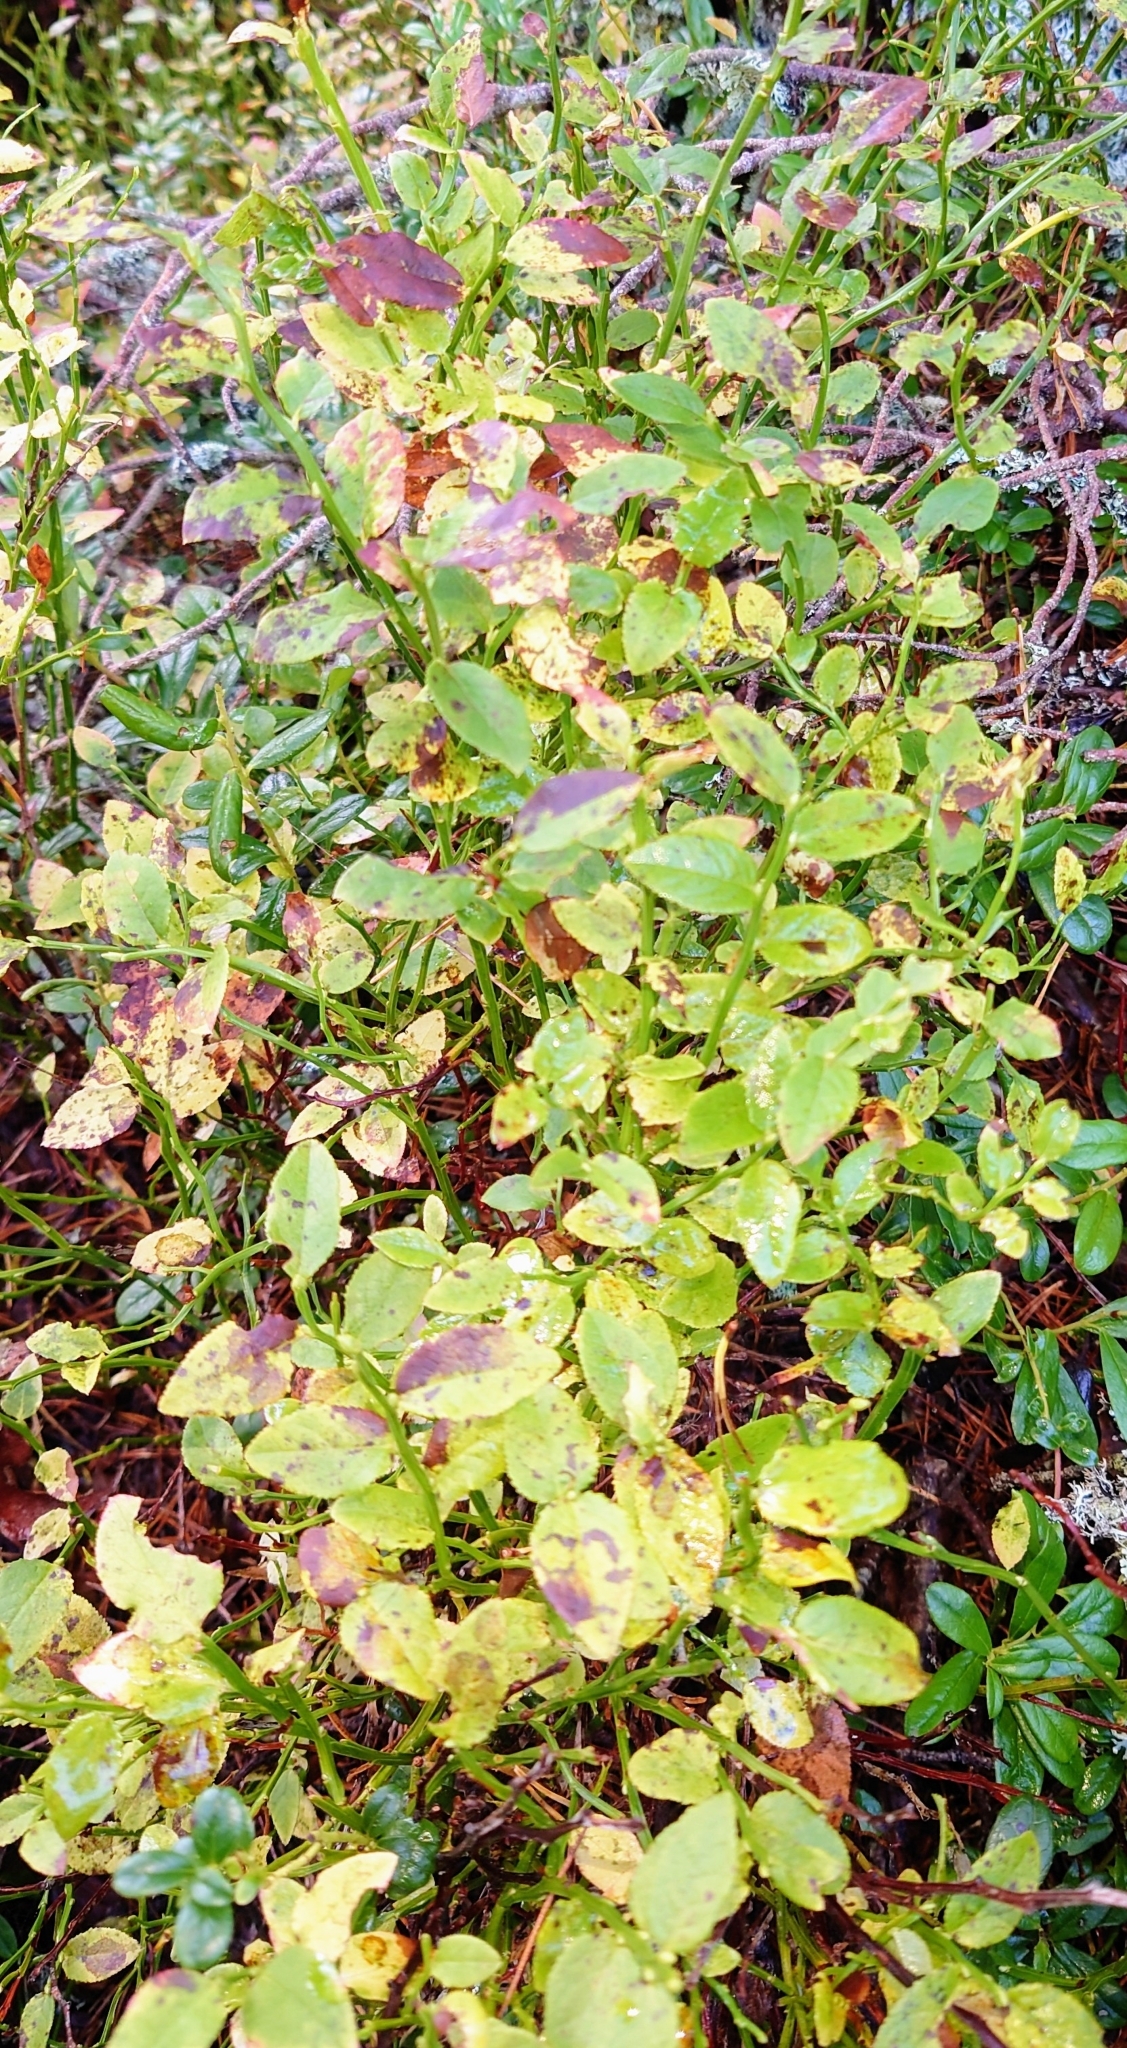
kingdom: Plantae
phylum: Tracheophyta
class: Magnoliopsida
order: Ericales
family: Ericaceae
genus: Vaccinium
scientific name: Vaccinium myrtillus
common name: Bilberry
